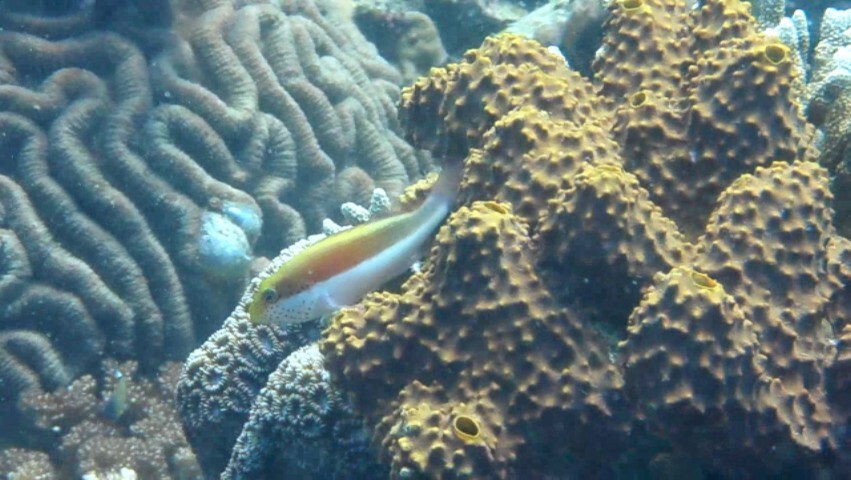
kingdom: Animalia
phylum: Chordata
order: Perciformes
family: Cirrhitidae
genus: Paracirrhites
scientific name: Paracirrhites forsteri
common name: Freckled hawkfish
